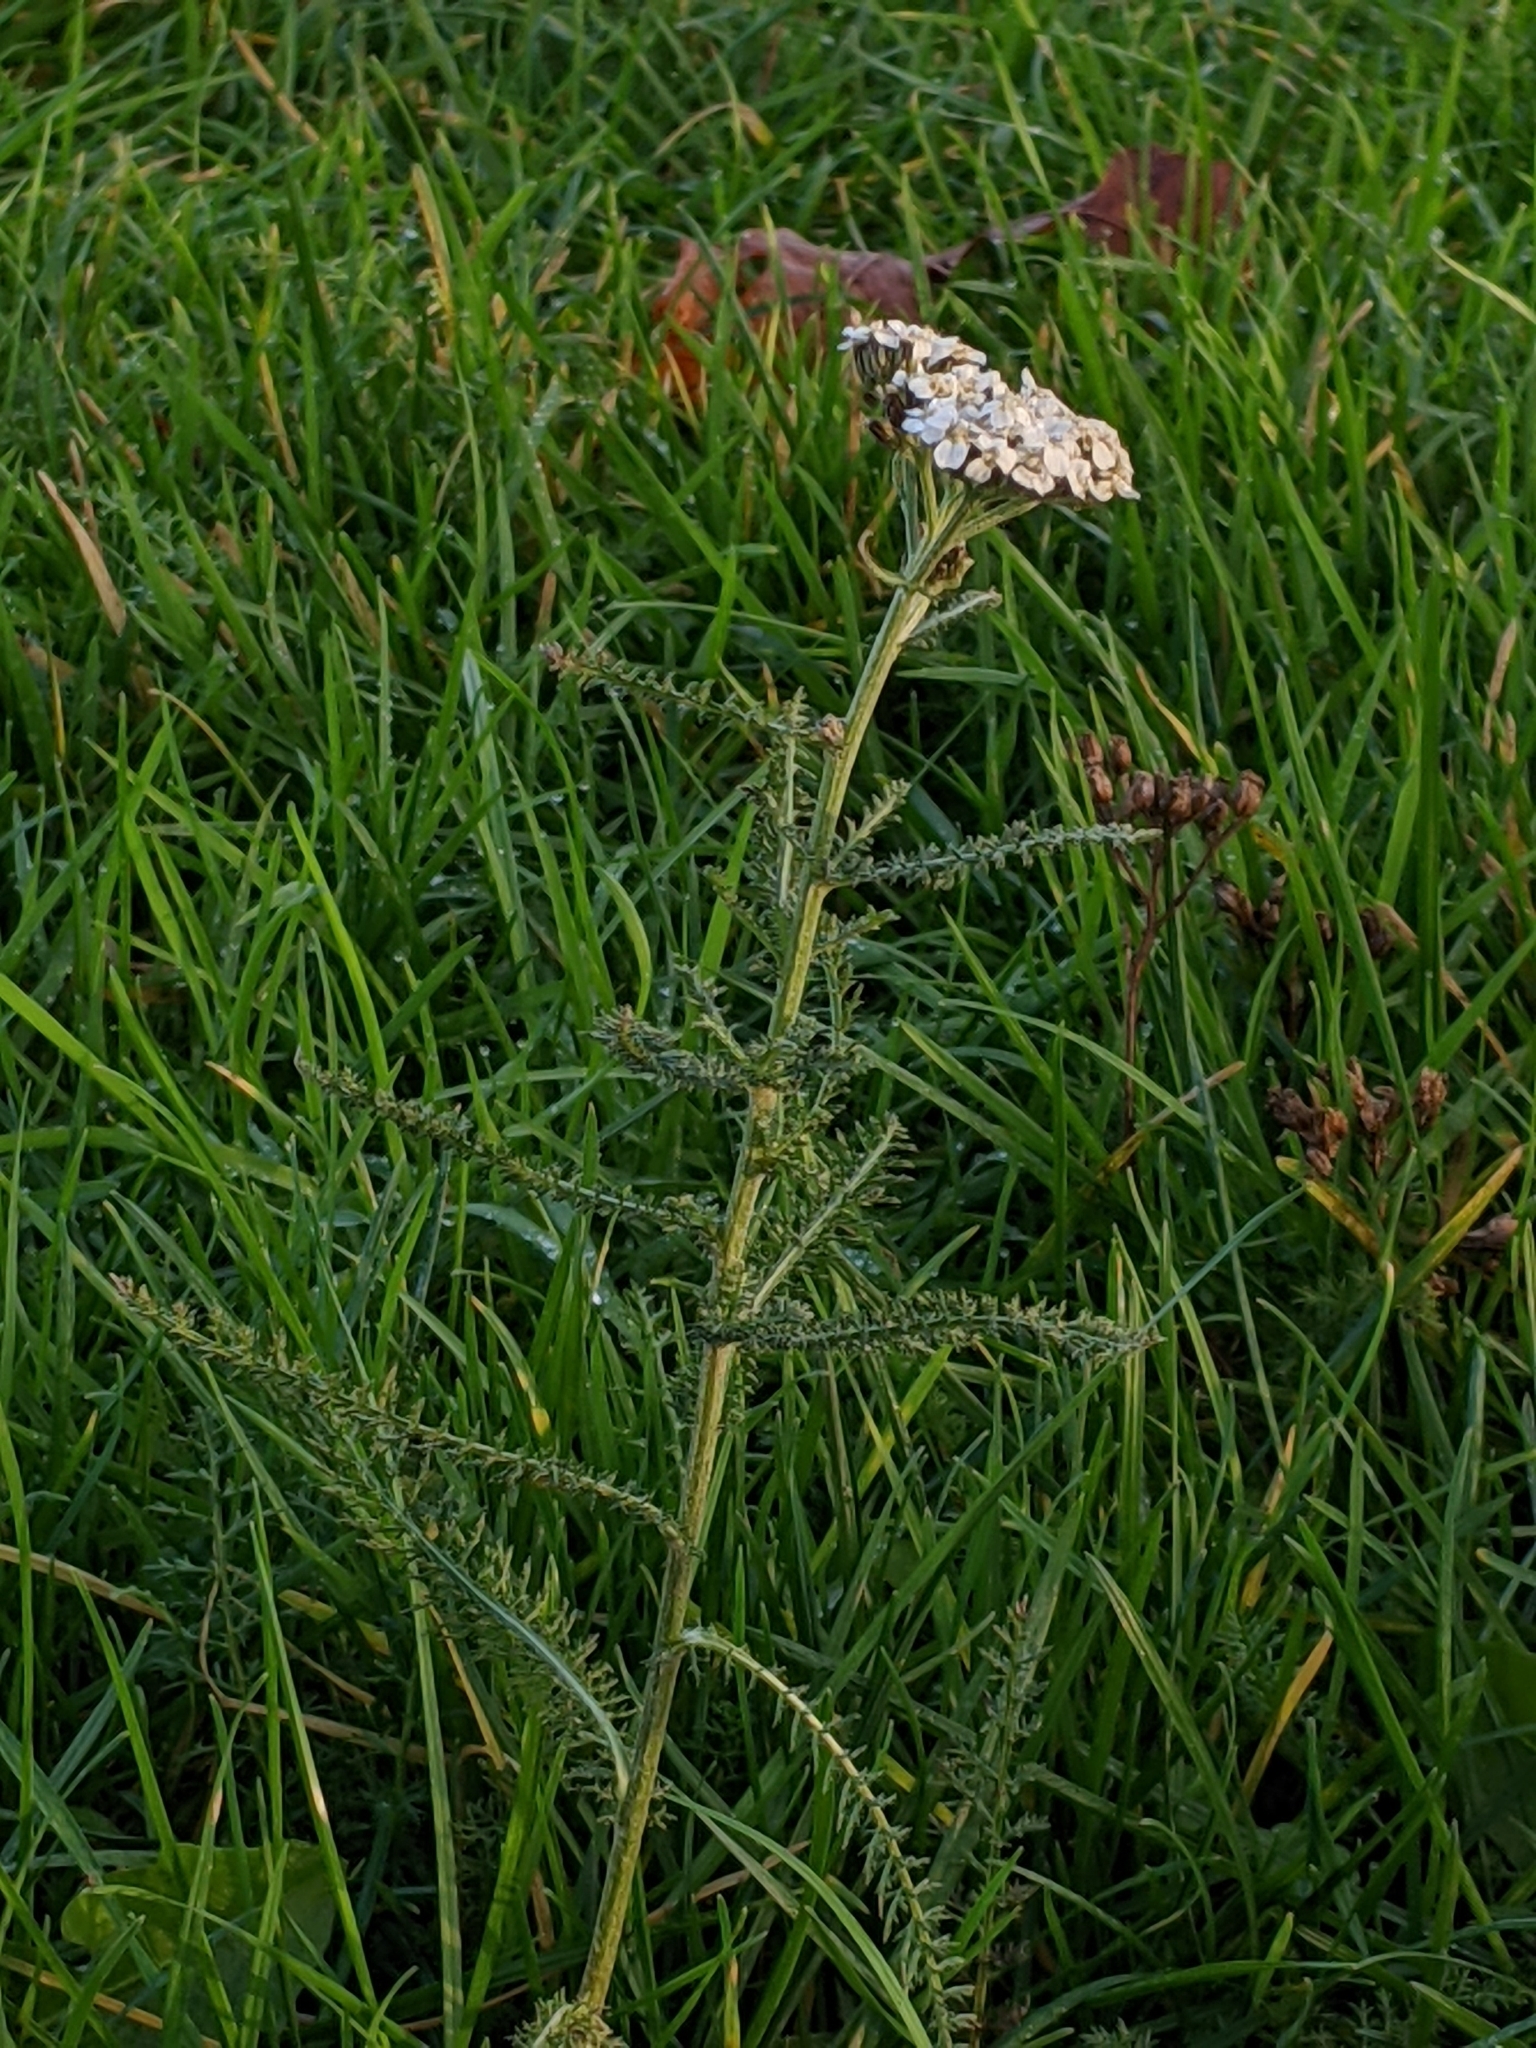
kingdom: Plantae
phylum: Tracheophyta
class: Magnoliopsida
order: Asterales
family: Asteraceae
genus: Achillea
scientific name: Achillea millefolium
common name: Yarrow
